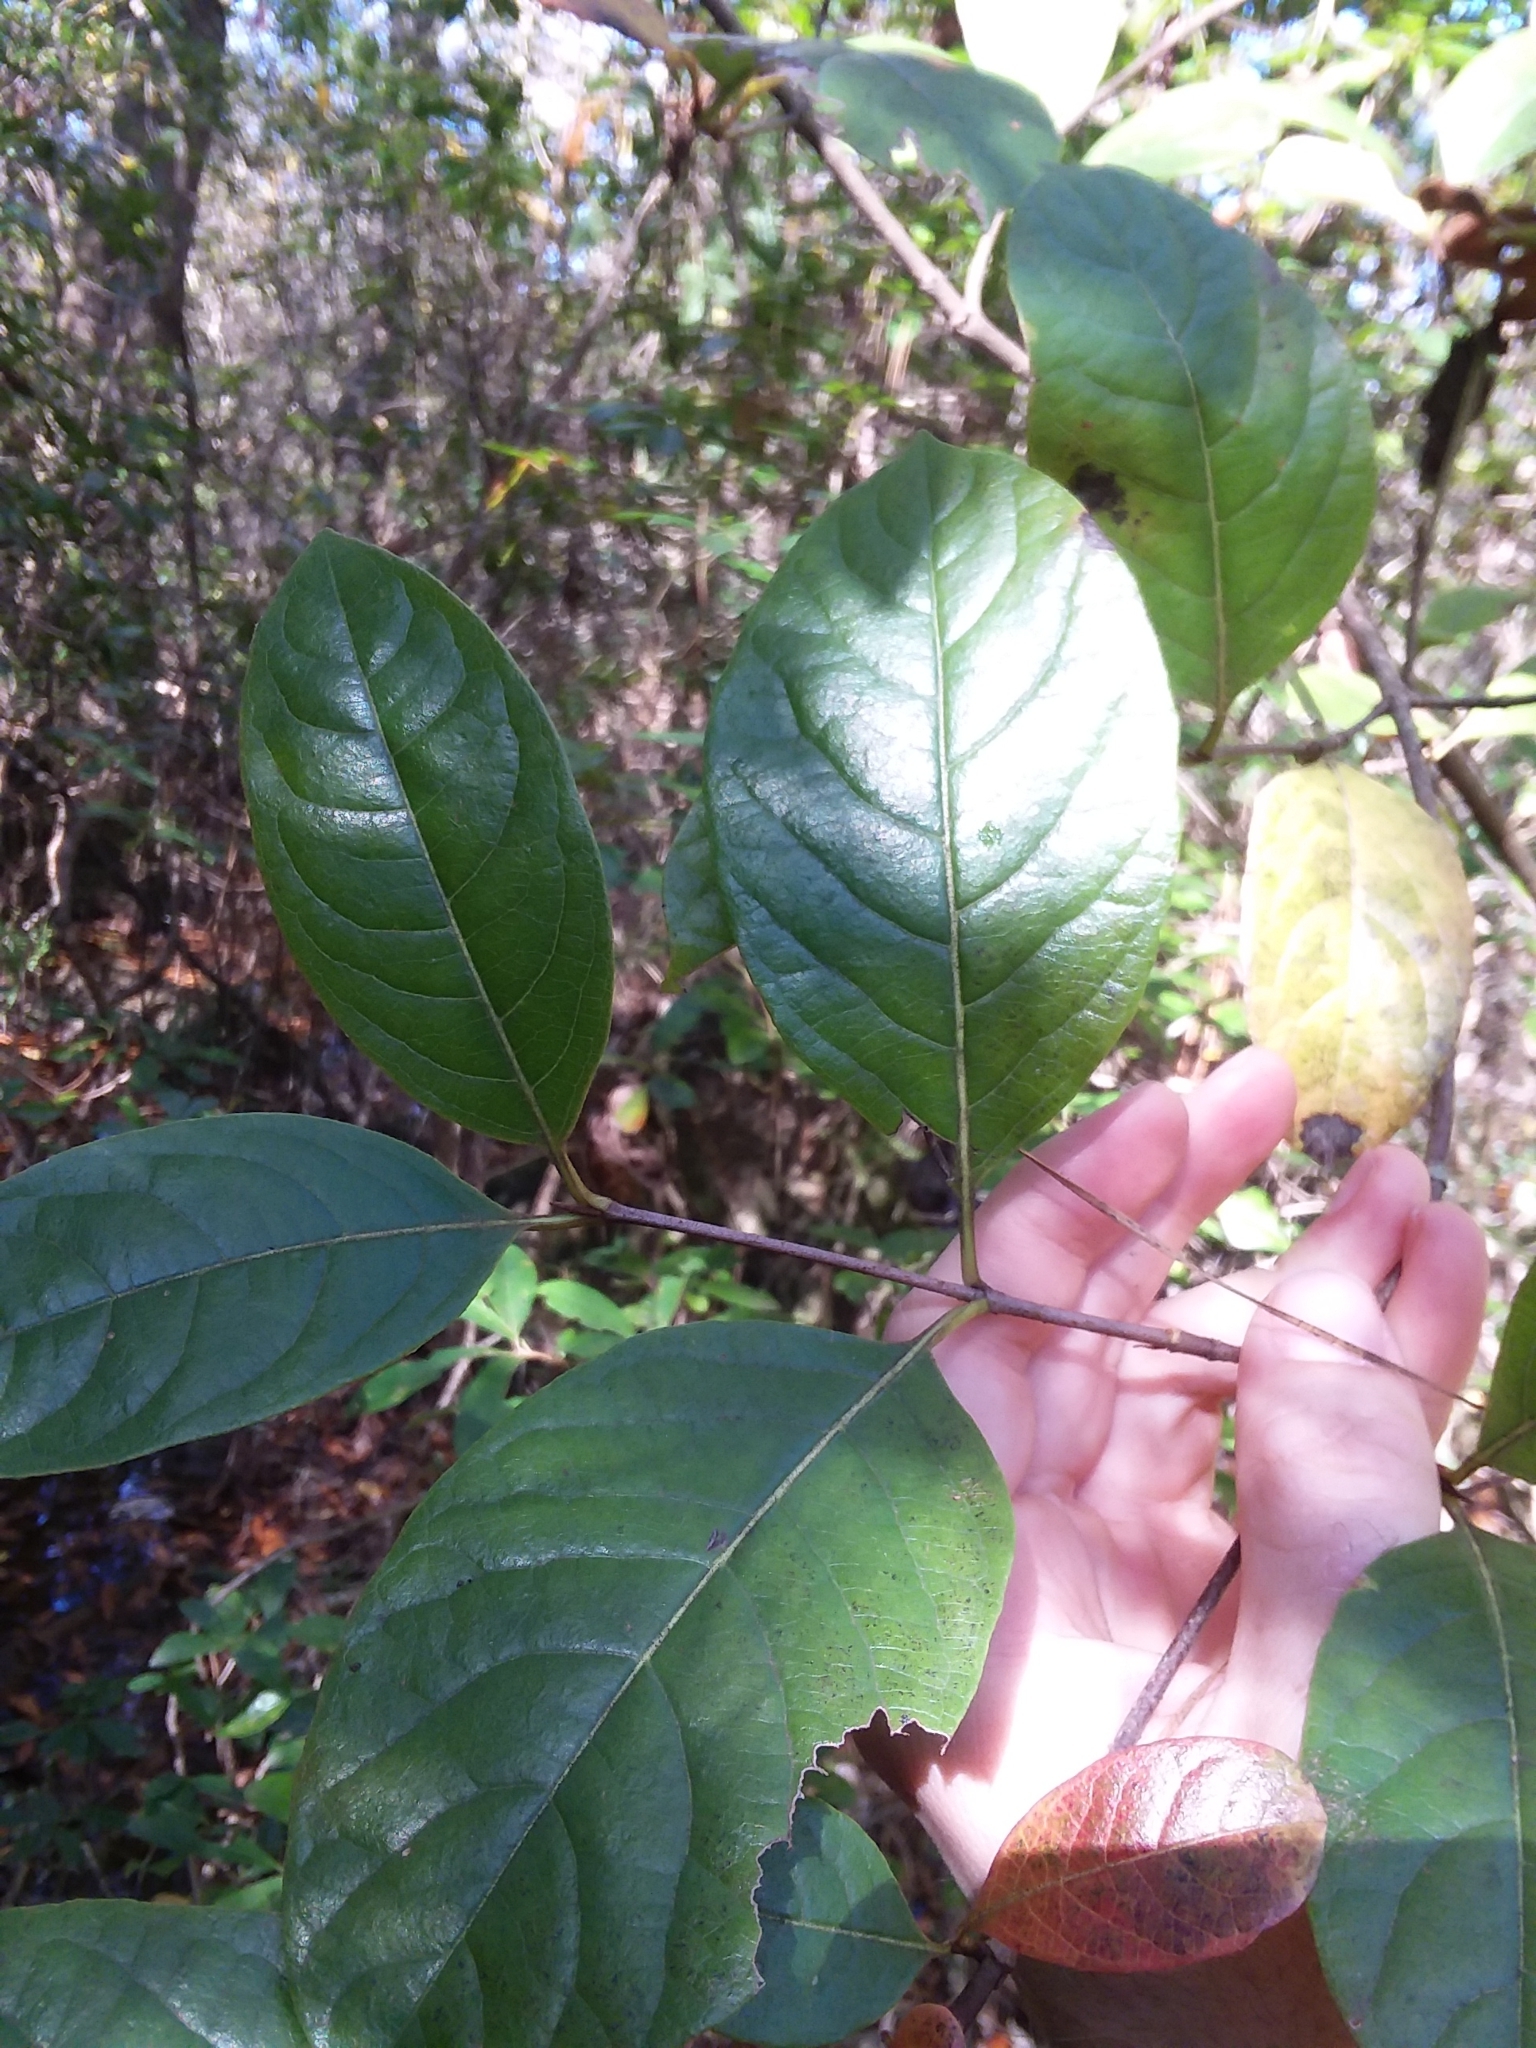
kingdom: Plantae
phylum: Tracheophyta
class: Magnoliopsida
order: Dipsacales
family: Viburnaceae
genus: Viburnum
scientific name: Viburnum nudum
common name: Possum haw
